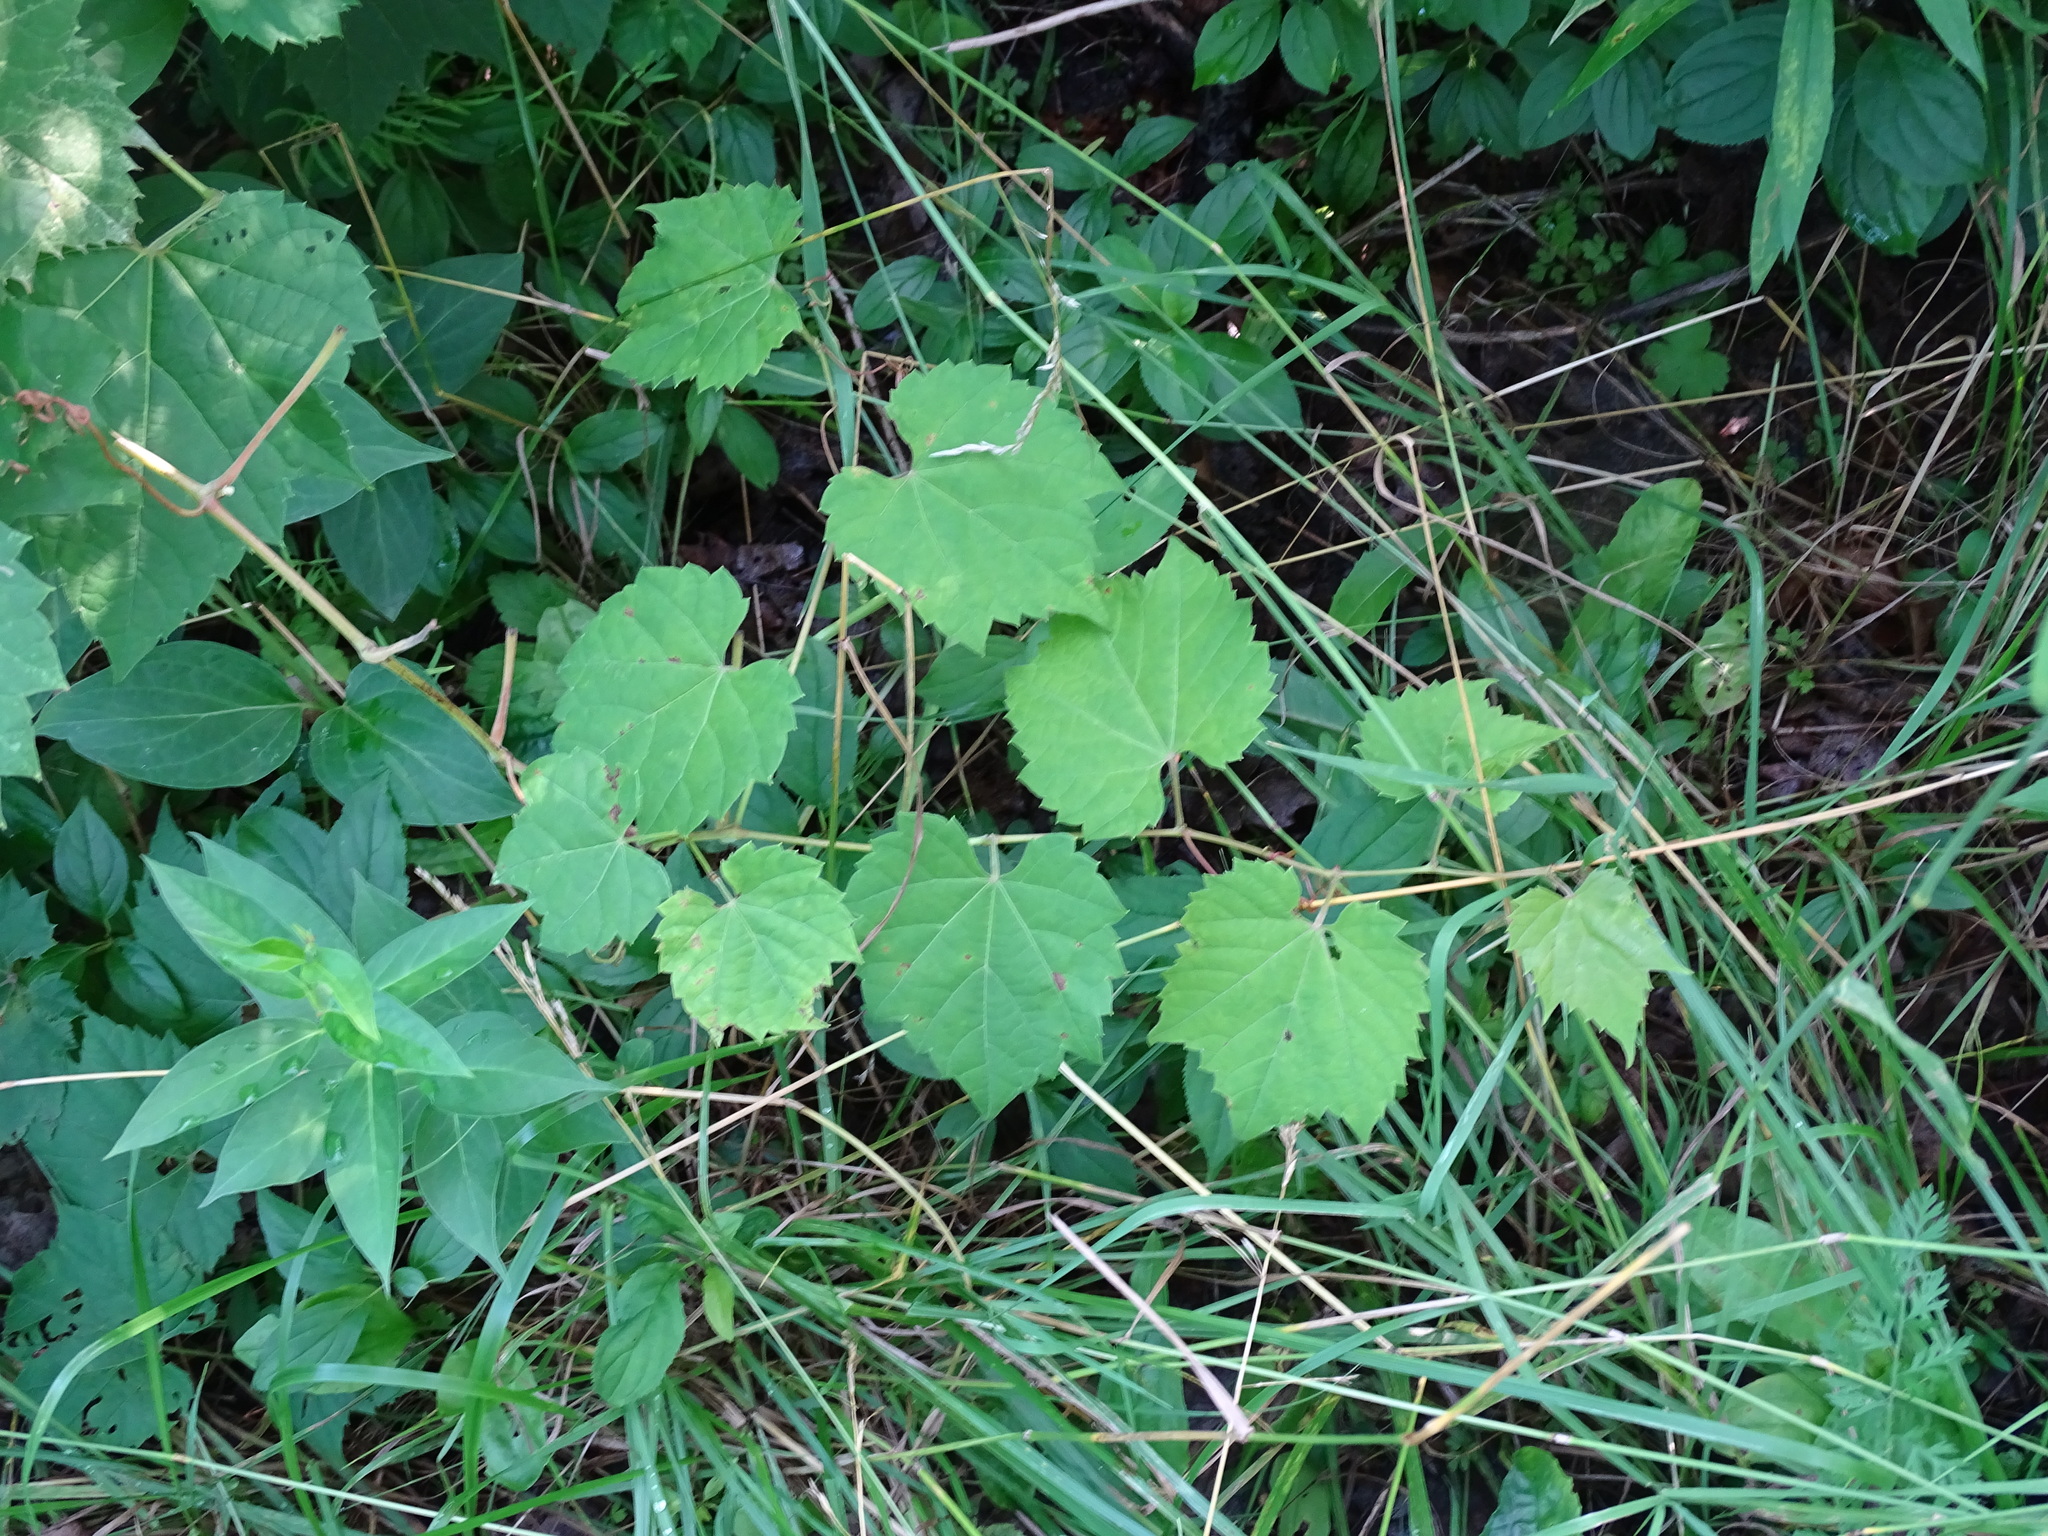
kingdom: Plantae
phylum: Tracheophyta
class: Magnoliopsida
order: Vitales
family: Vitaceae
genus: Vitis
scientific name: Vitis riparia
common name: Frost grape
